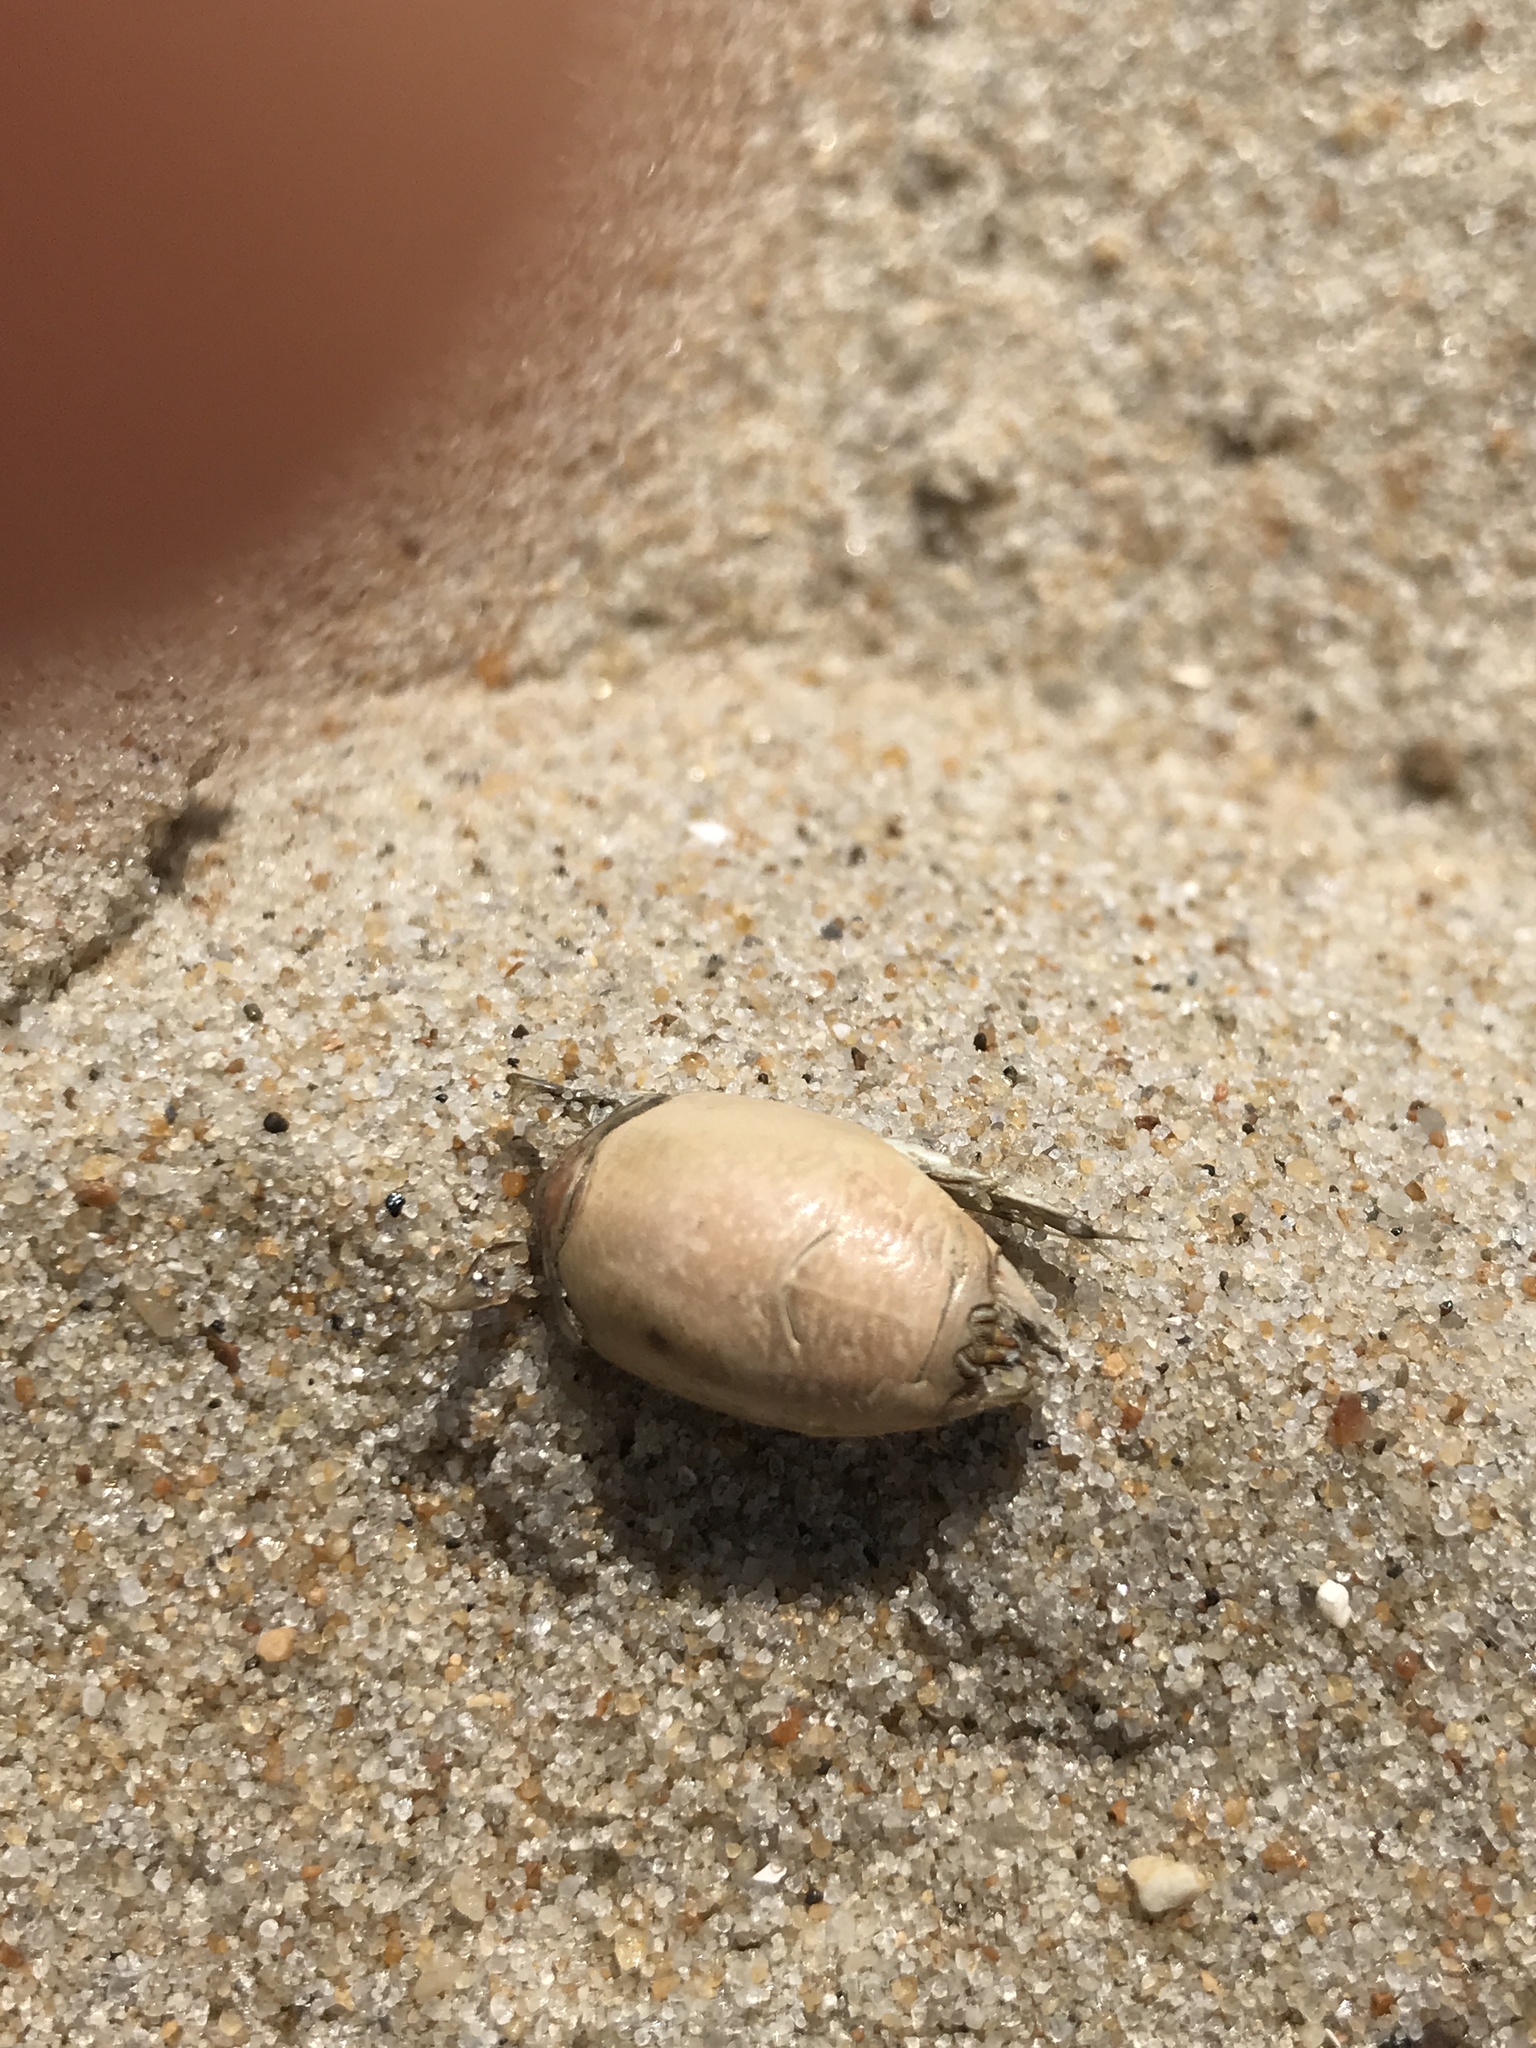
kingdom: Animalia
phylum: Arthropoda
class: Malacostraca
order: Decapoda
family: Hippidae
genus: Emerita
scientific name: Emerita talpoida
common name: Atlantic sand crab
